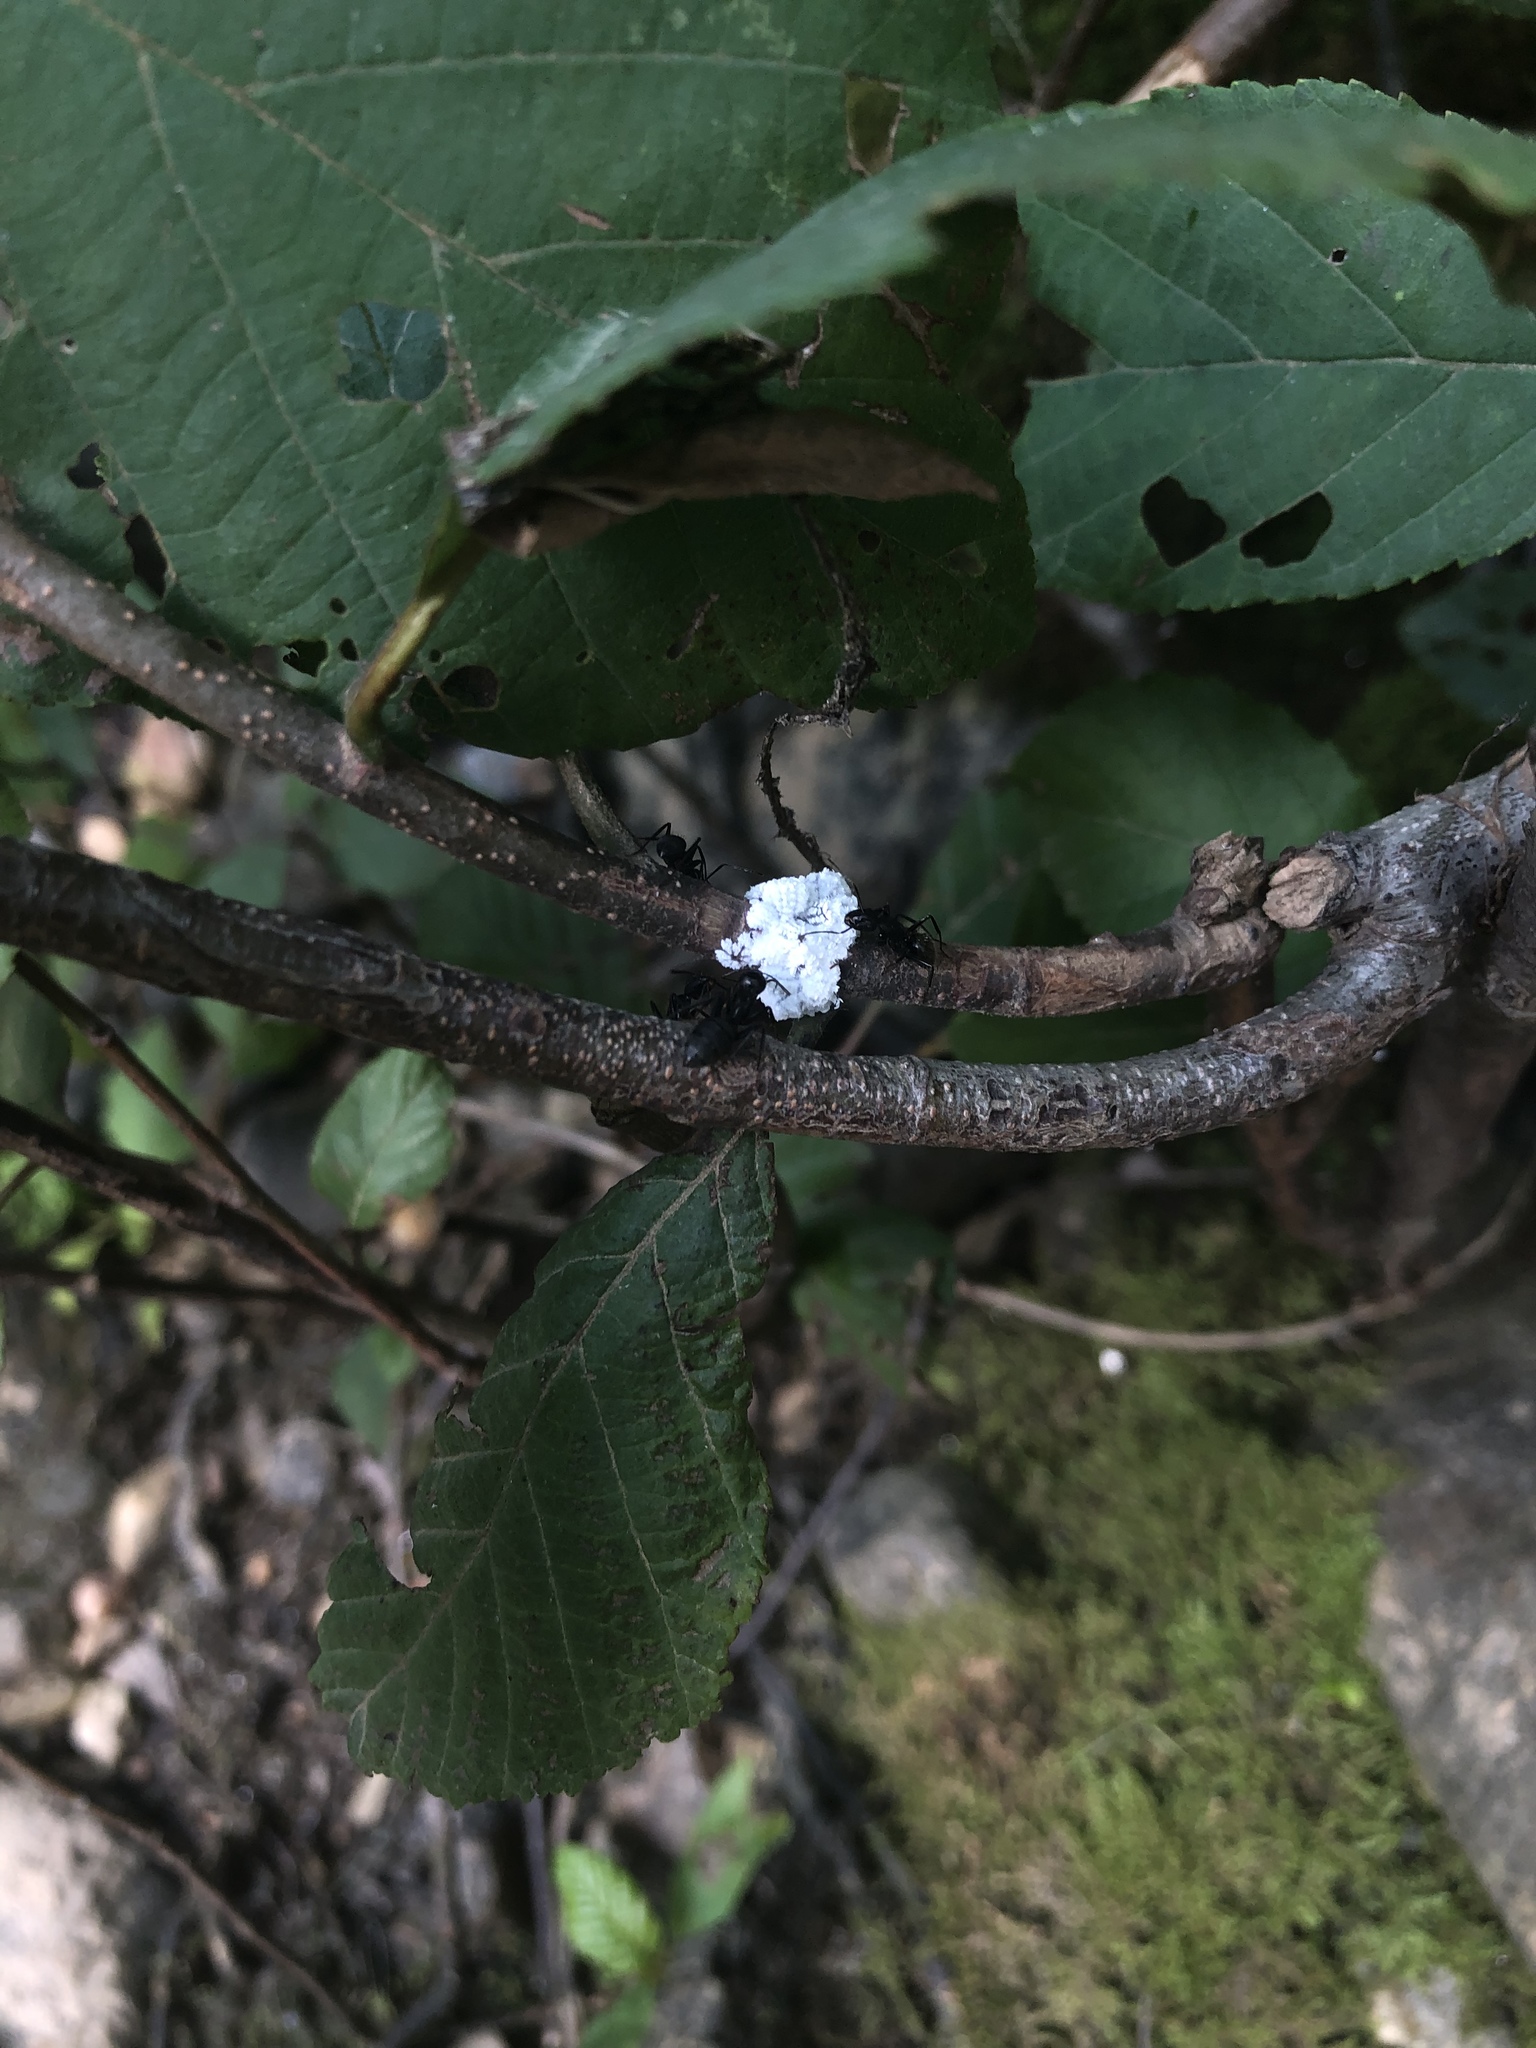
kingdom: Animalia
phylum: Arthropoda
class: Insecta
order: Hymenoptera
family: Formicidae
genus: Camponotus
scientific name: Camponotus pennsylvanicus
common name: Black carpenter ant
